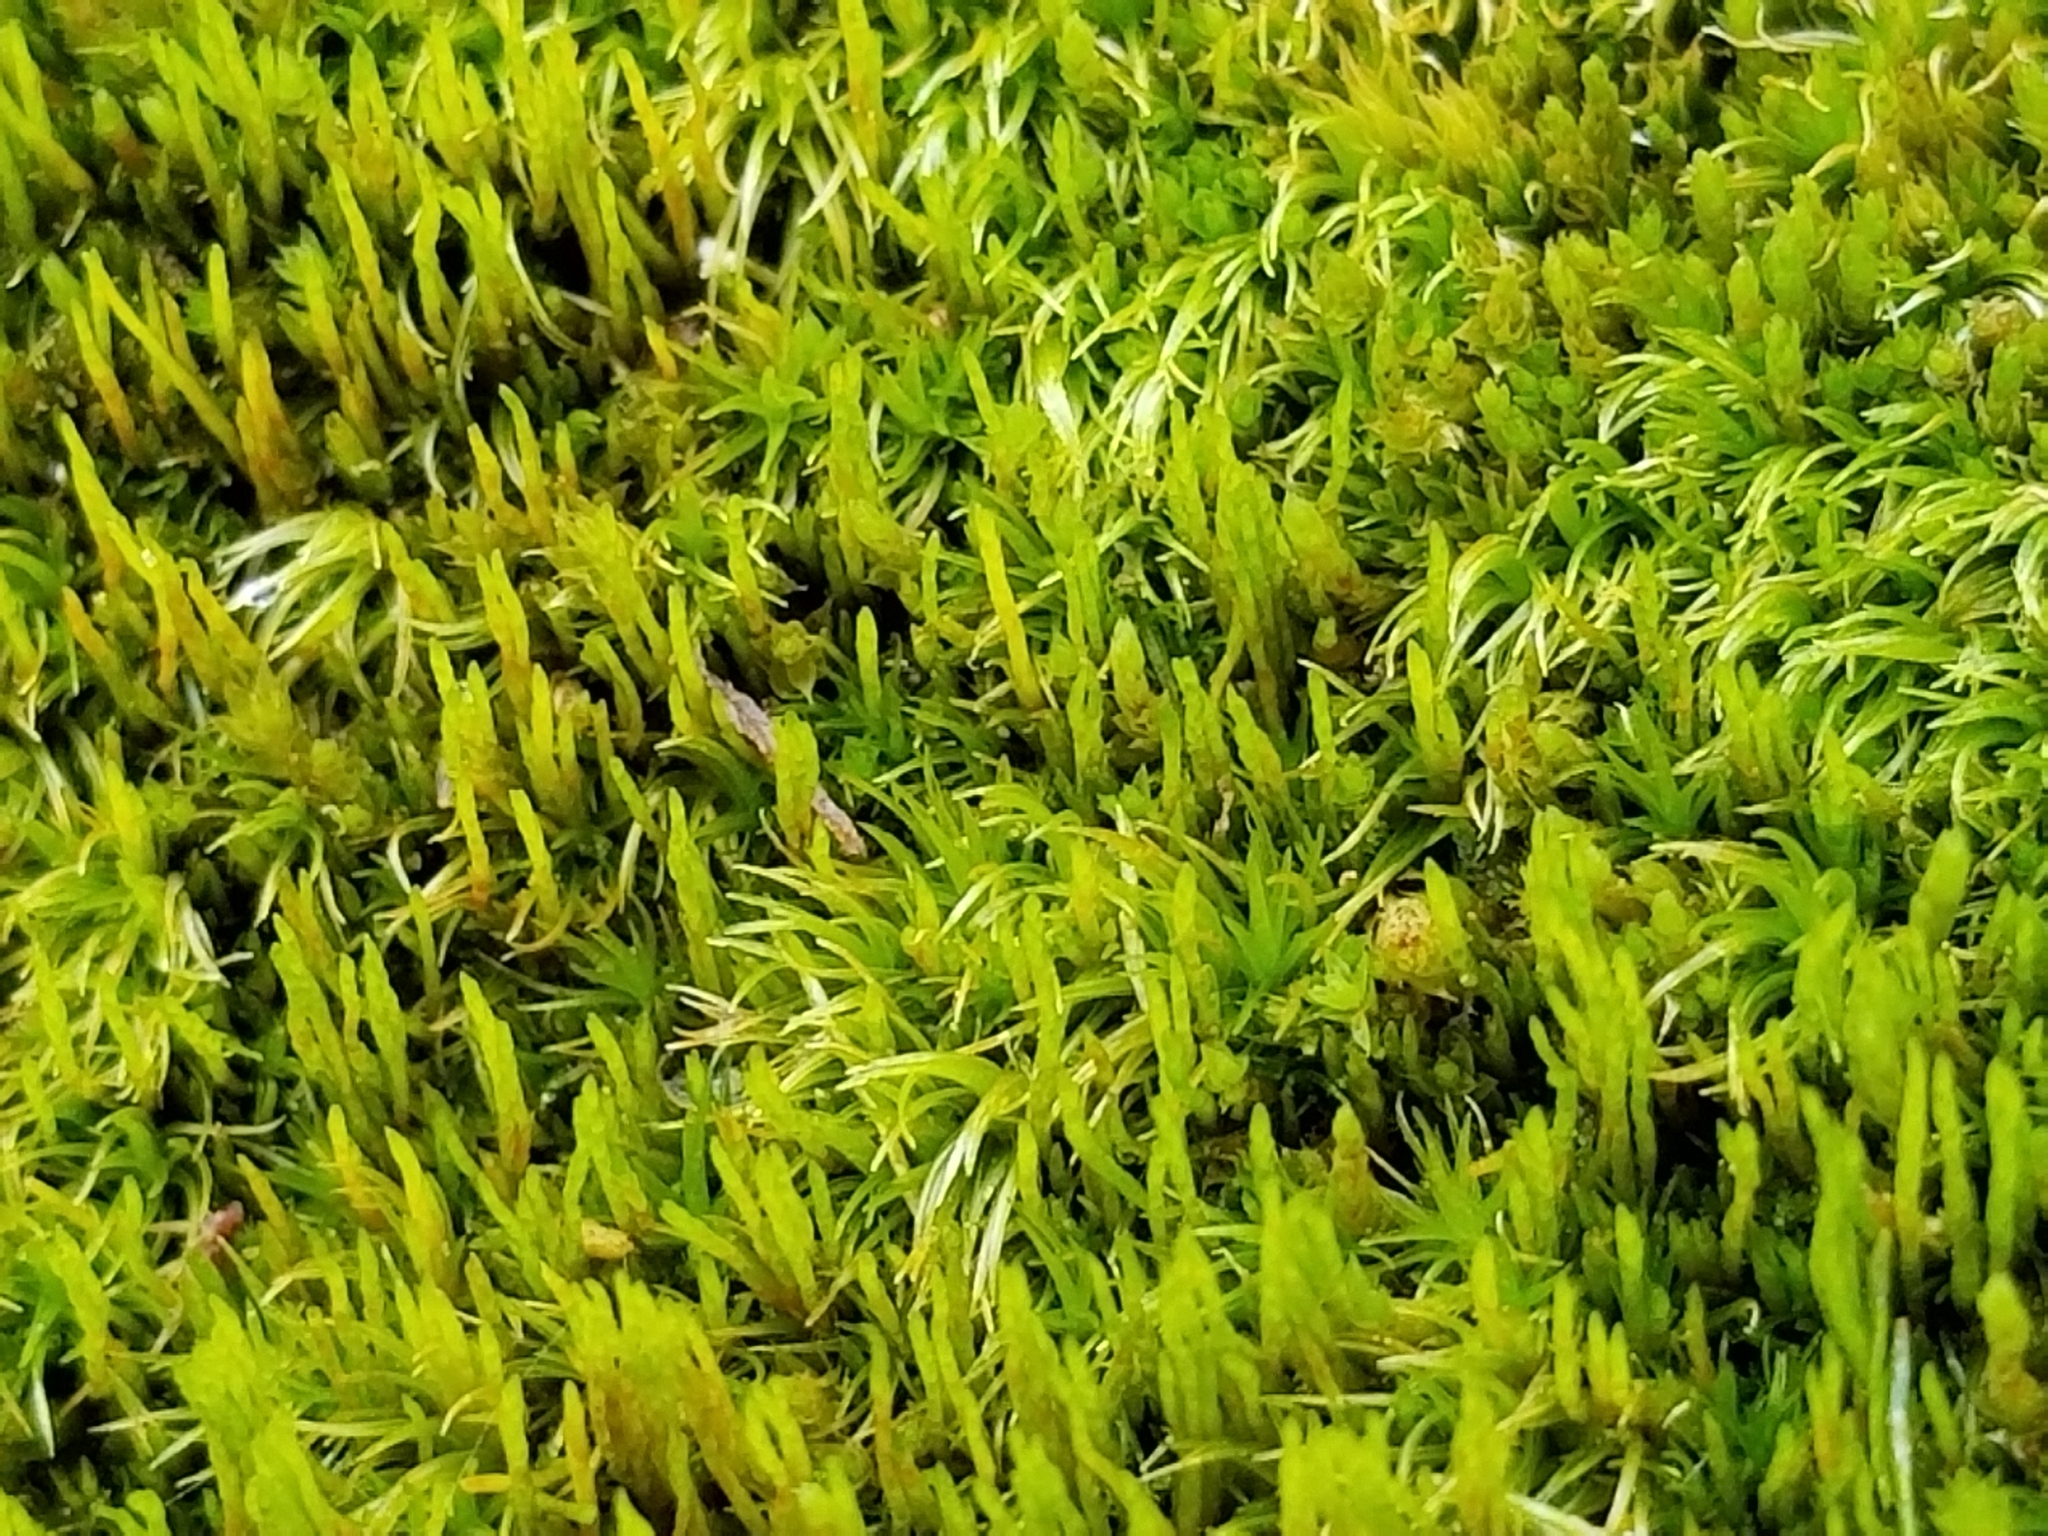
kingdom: Plantae
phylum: Bryophyta
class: Bryopsida
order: Dicranales
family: Dicranaceae
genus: Orthodicranum
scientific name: Orthodicranum flagellare
